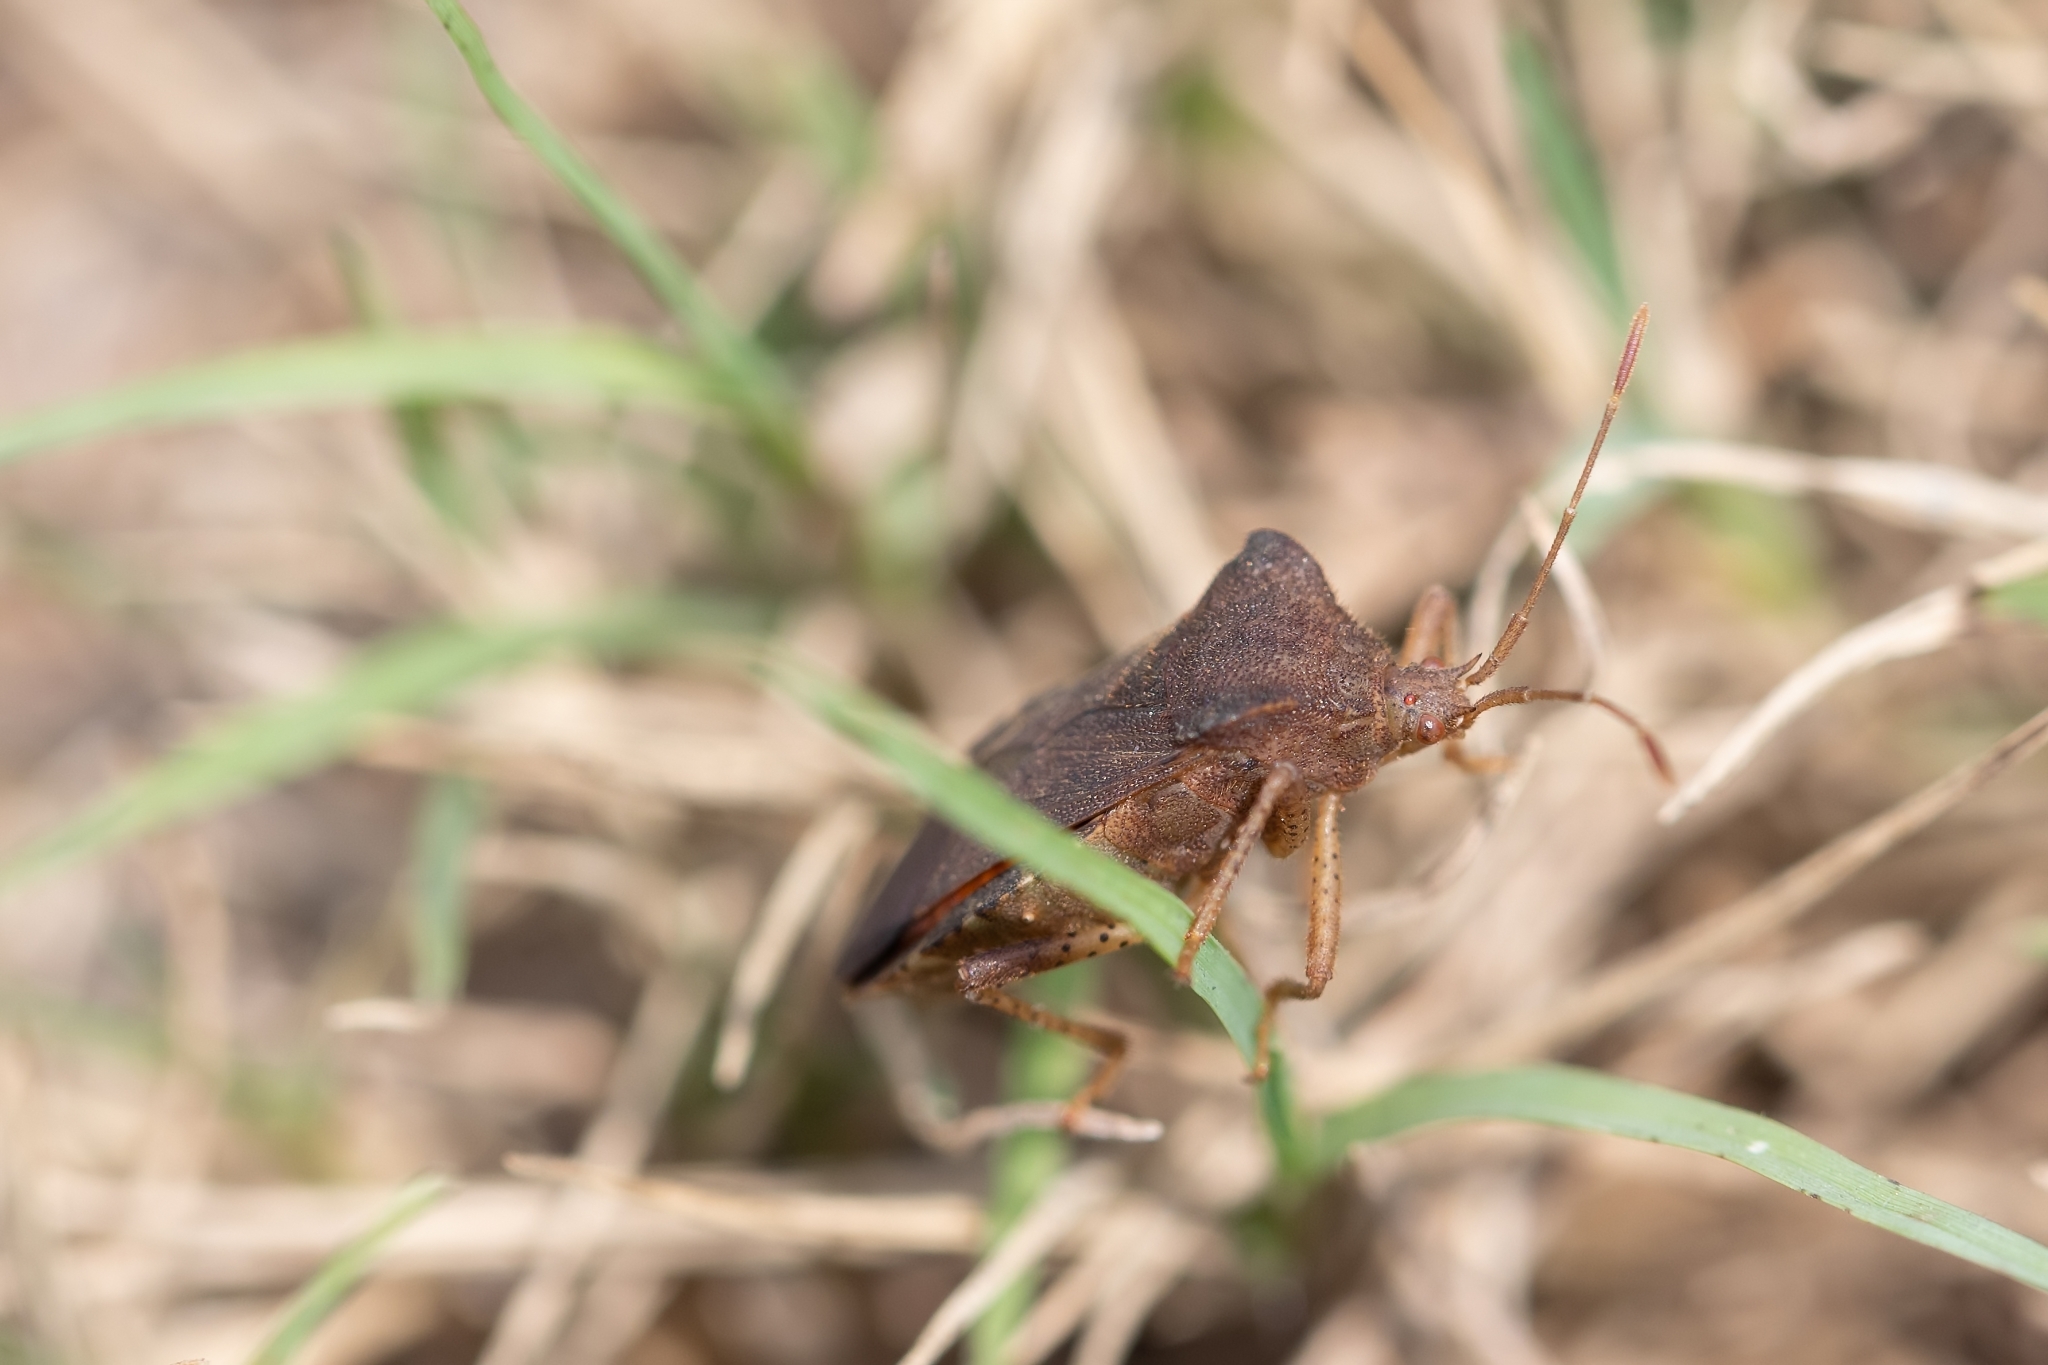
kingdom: Animalia
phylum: Arthropoda
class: Insecta
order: Hemiptera
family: Coreidae
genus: Anasa
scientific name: Anasa scorbutica
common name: Squash bug
